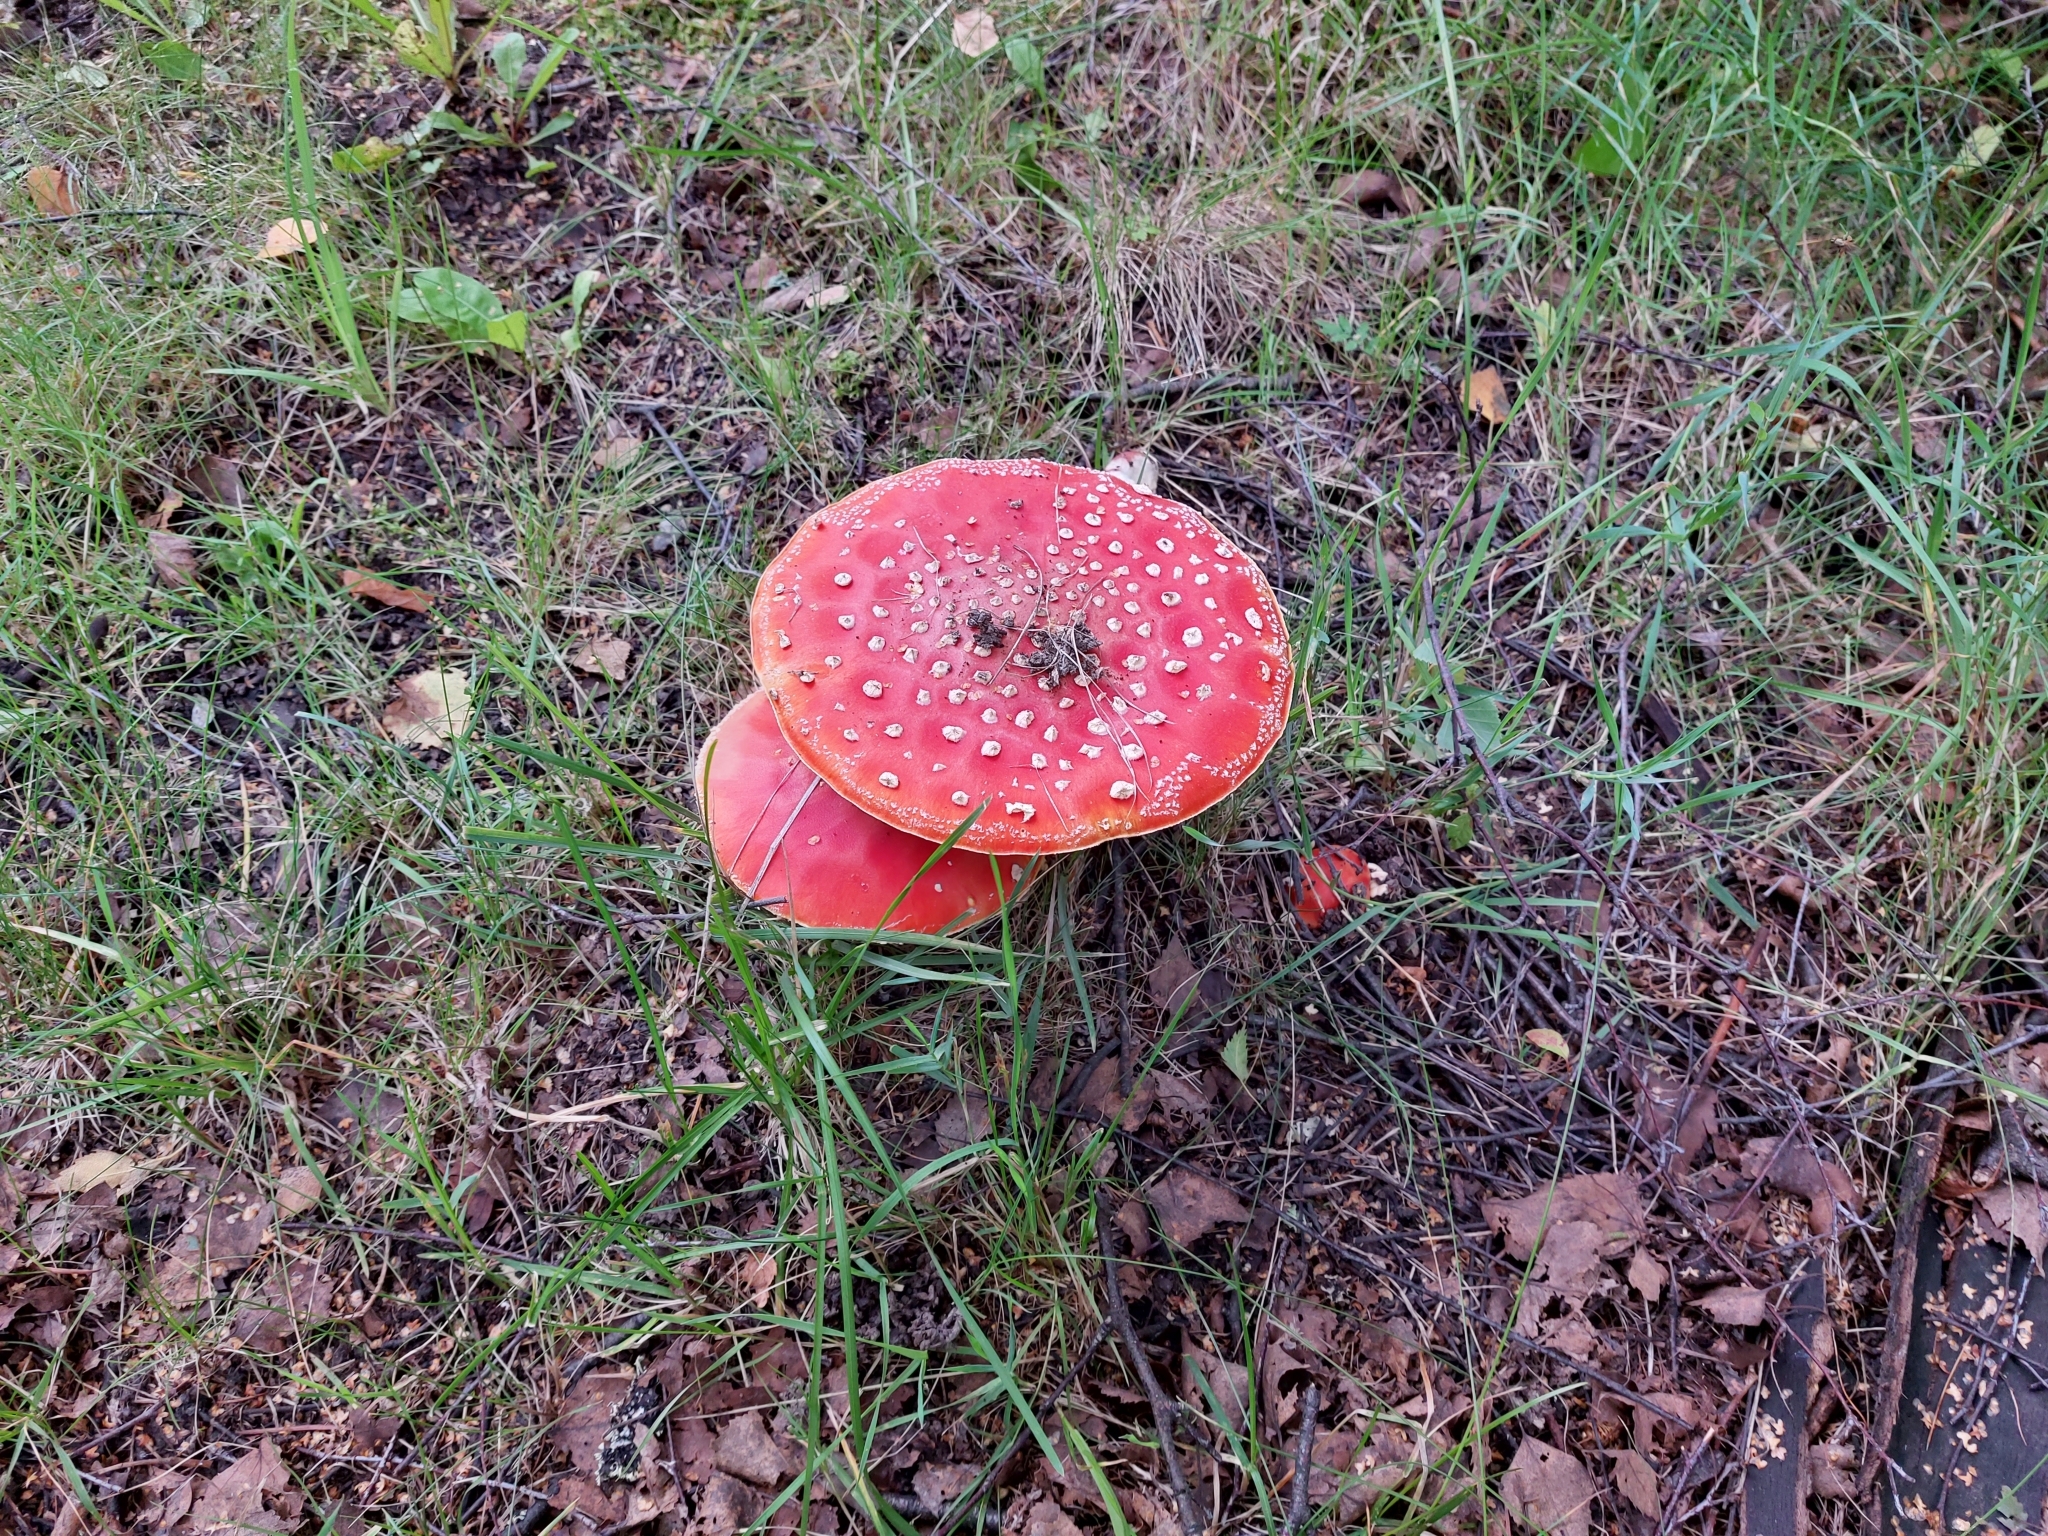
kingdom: Fungi
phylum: Basidiomycota
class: Agaricomycetes
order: Agaricales
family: Amanitaceae
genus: Amanita
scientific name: Amanita muscaria
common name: Fly agaric
